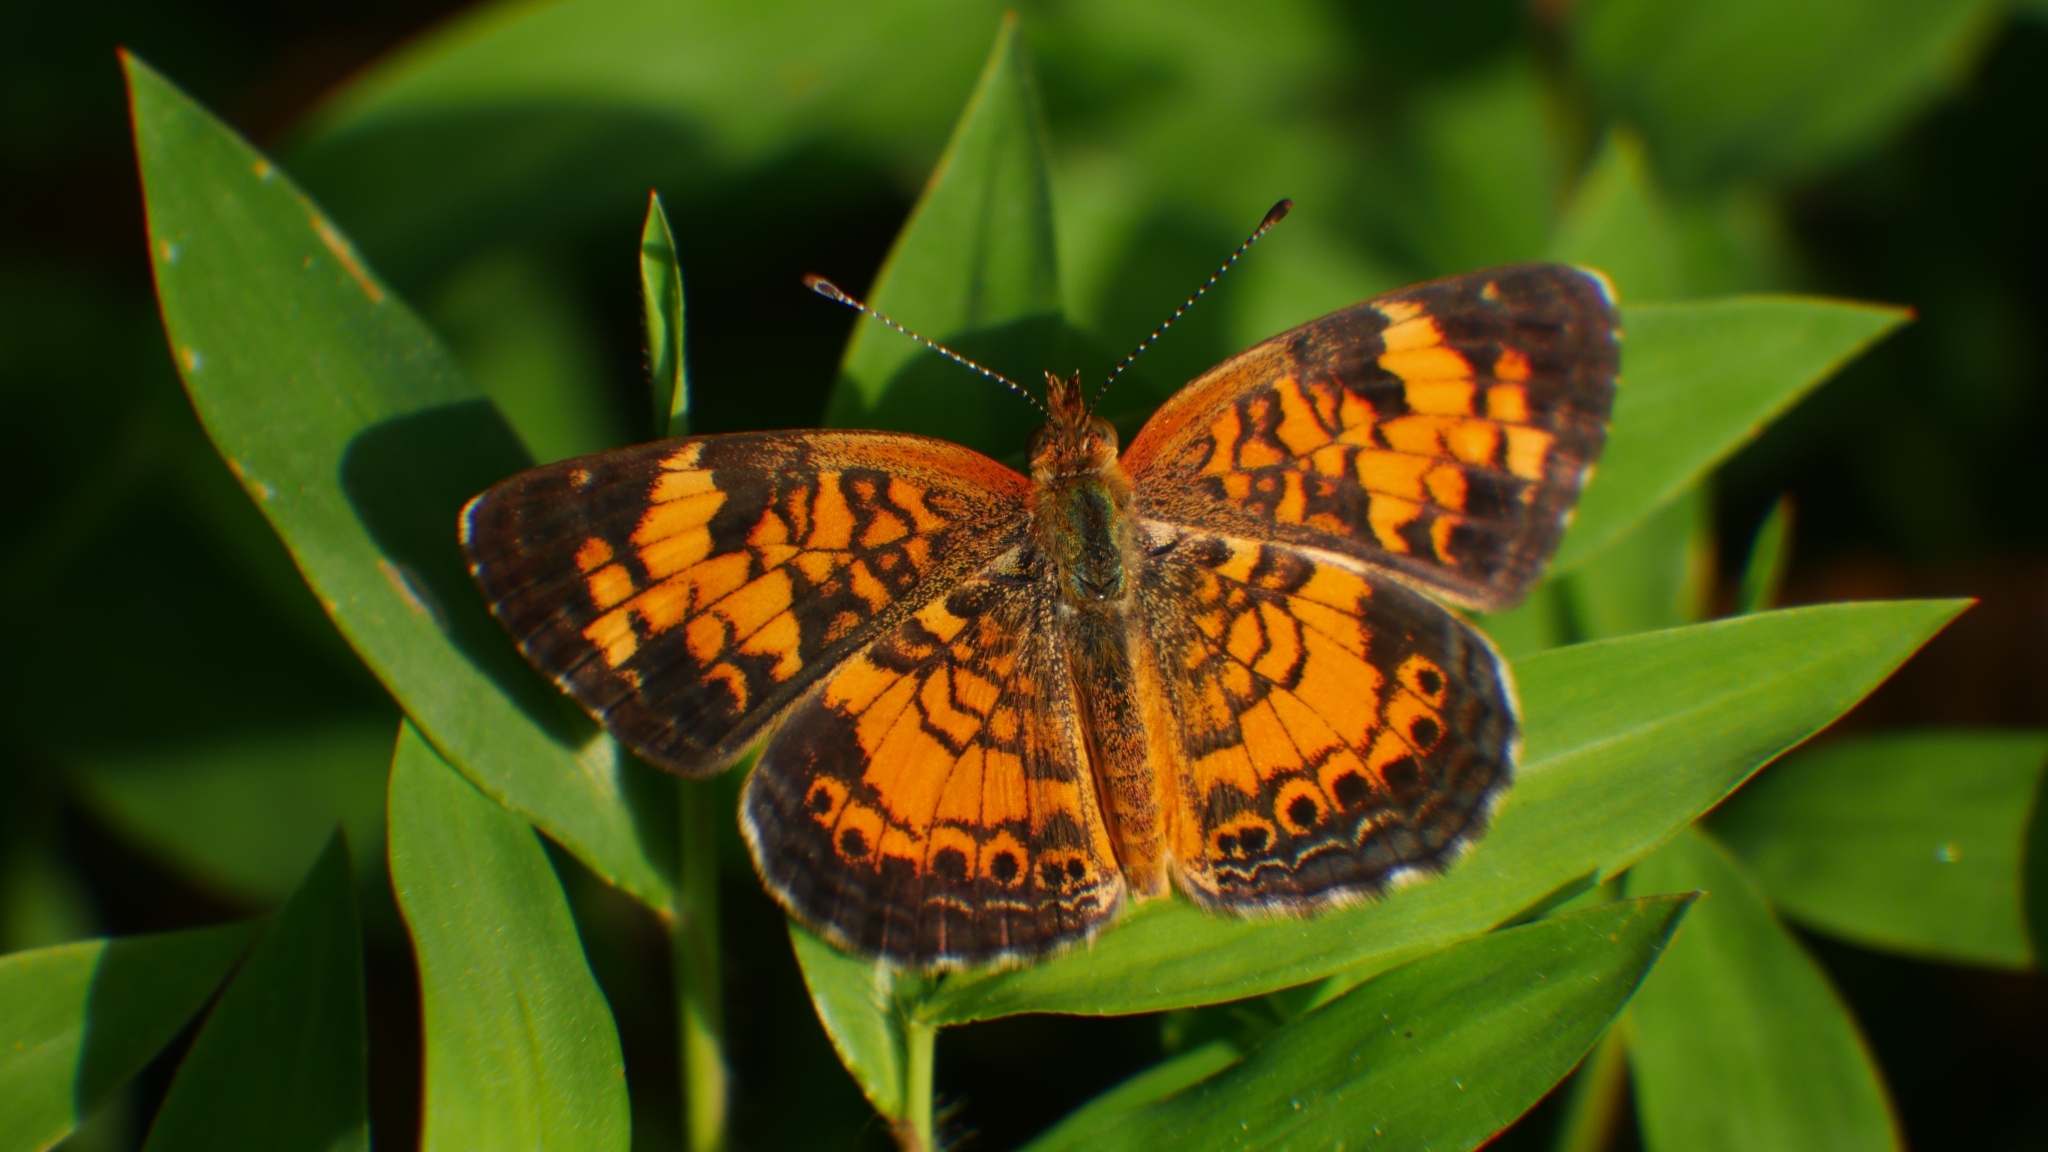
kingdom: Animalia
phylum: Arthropoda
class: Insecta
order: Lepidoptera
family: Nymphalidae
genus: Phyciodes
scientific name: Phyciodes tharos
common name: Pearl crescent
